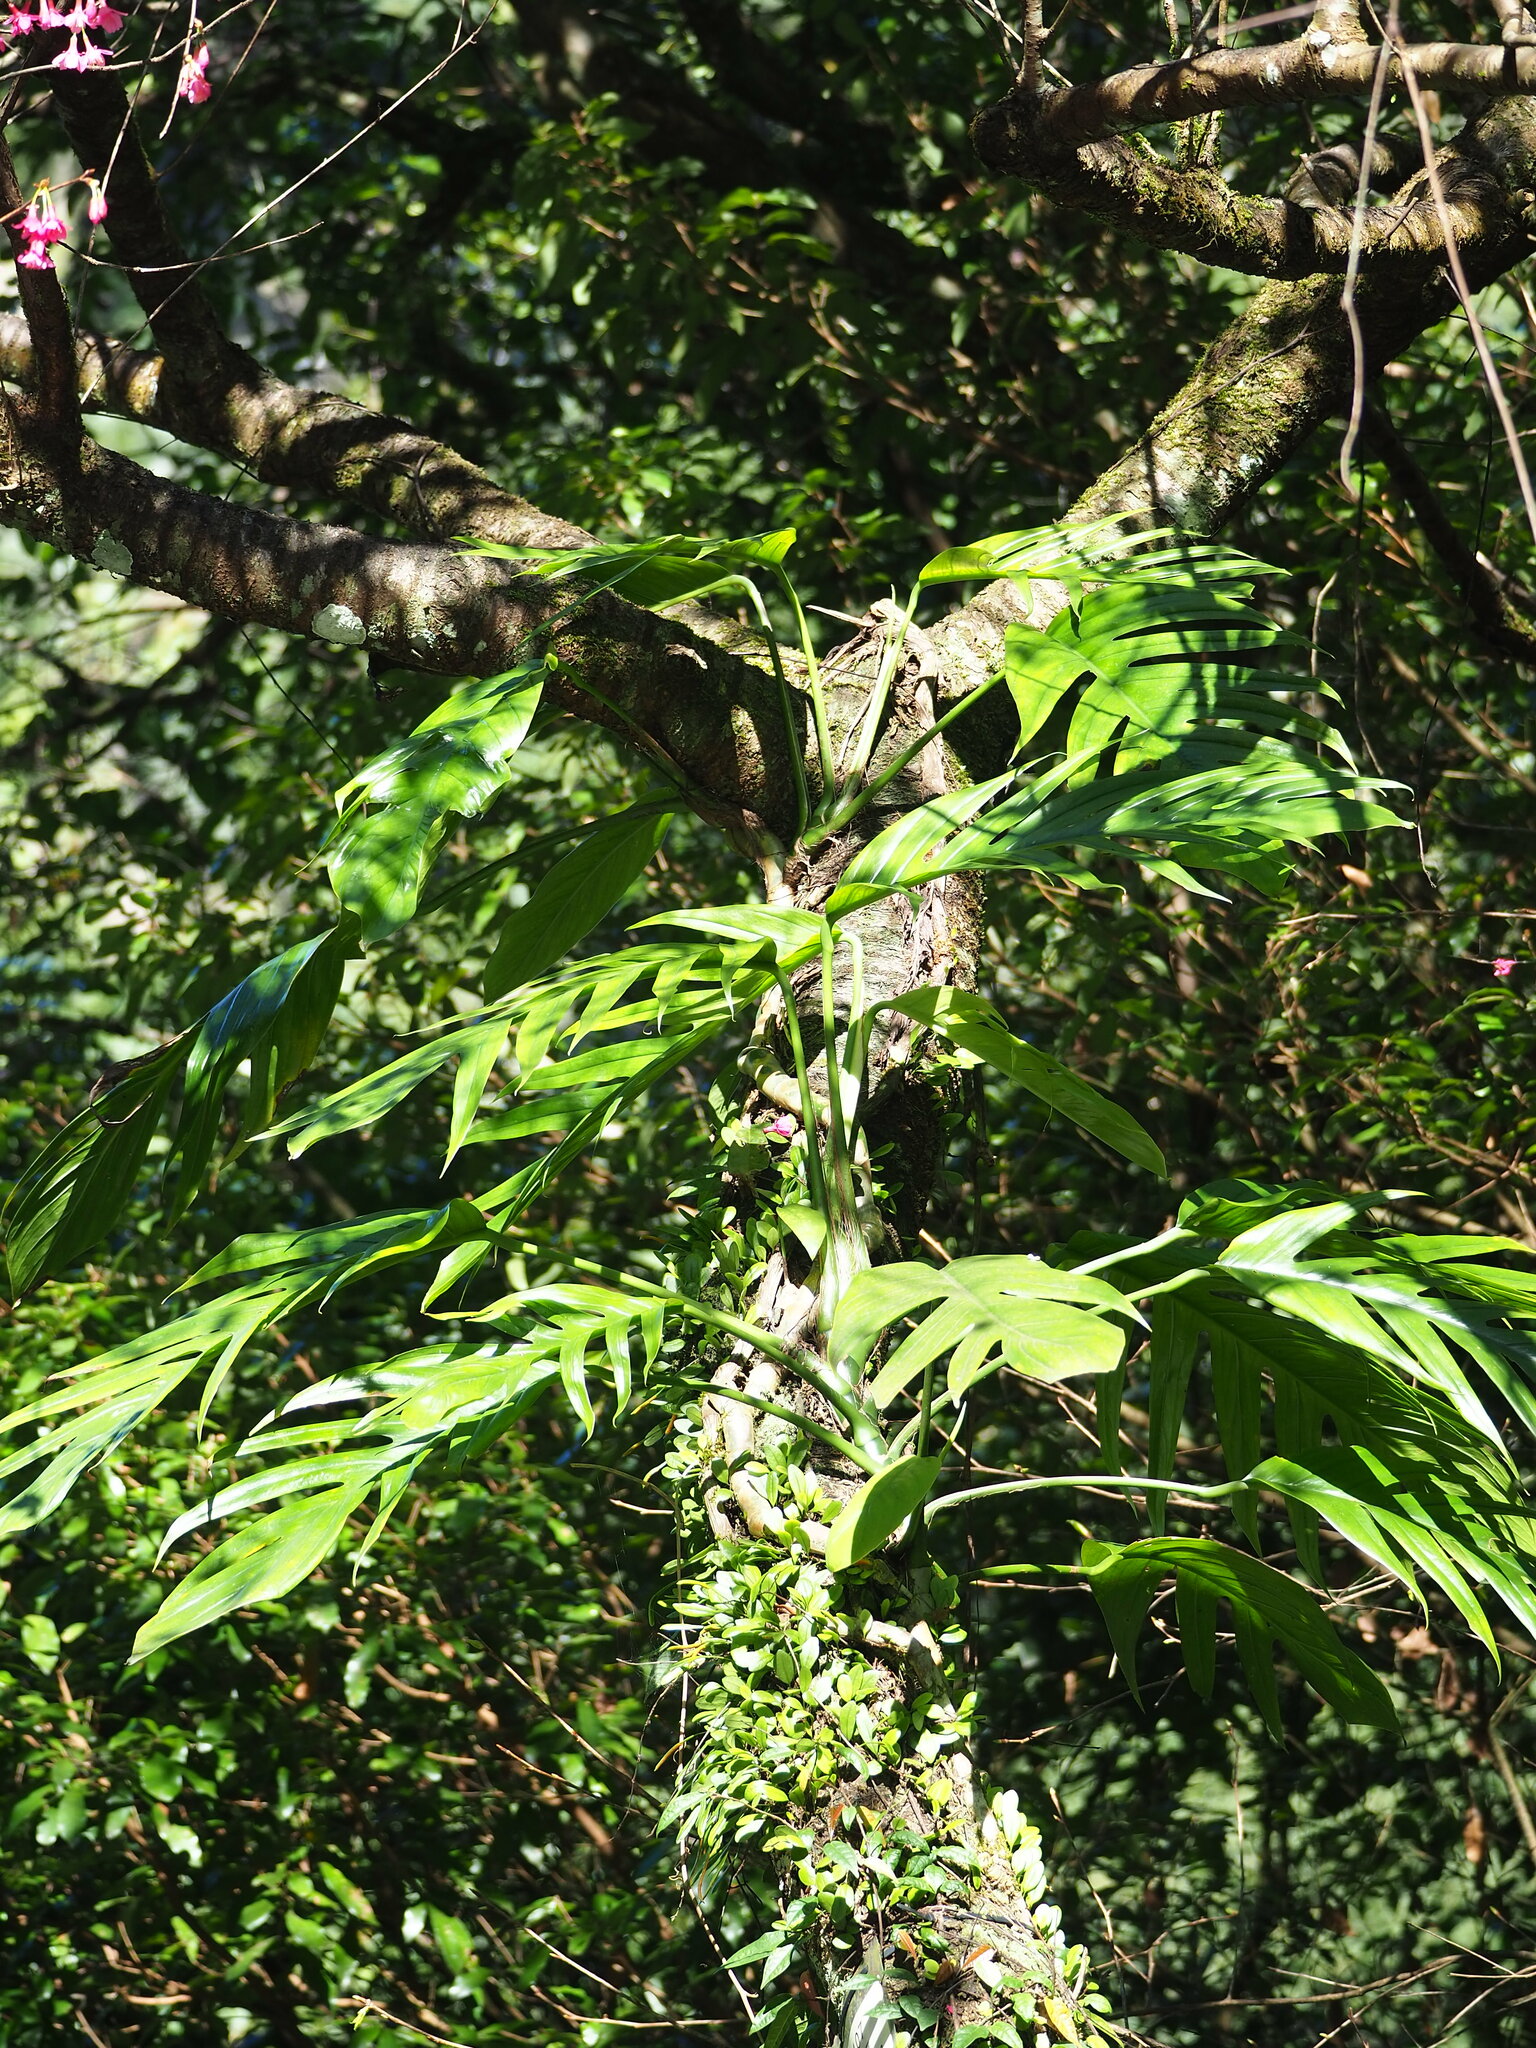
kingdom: Plantae
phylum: Tracheophyta
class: Liliopsida
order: Alismatales
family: Araceae
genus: Epipremnum
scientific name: Epipremnum pinnatum
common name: Centipede tongavine
